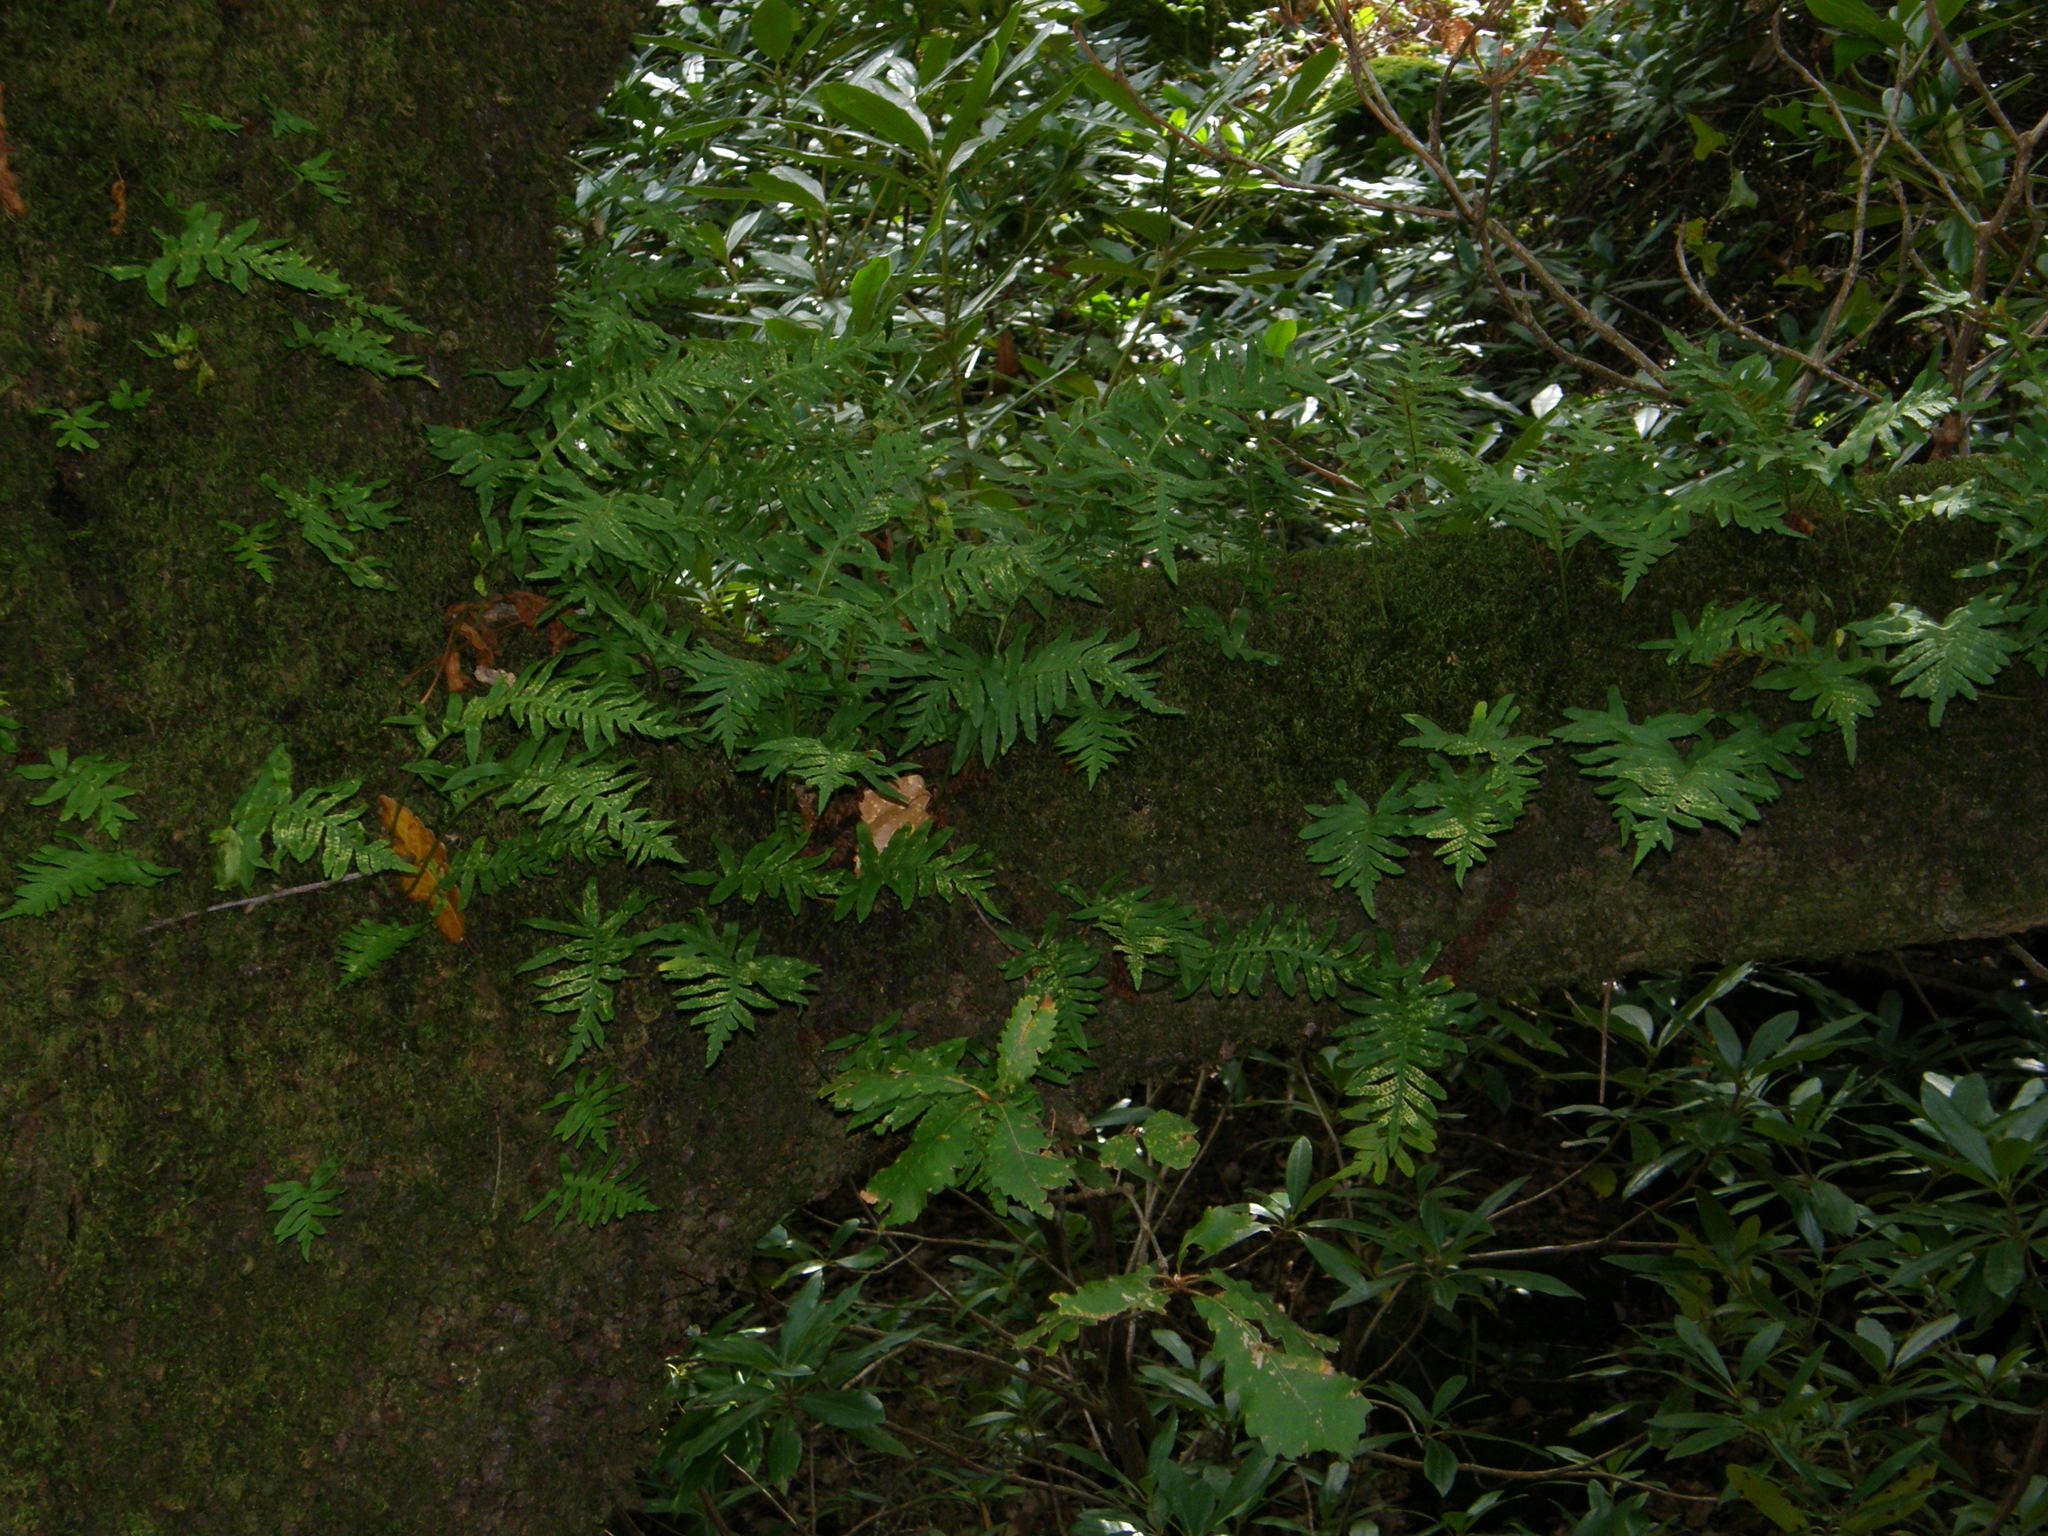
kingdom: Plantae
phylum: Tracheophyta
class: Polypodiopsida
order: Polypodiales
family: Polypodiaceae
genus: Polypodium
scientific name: Polypodium cambricum
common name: Southern polypody
